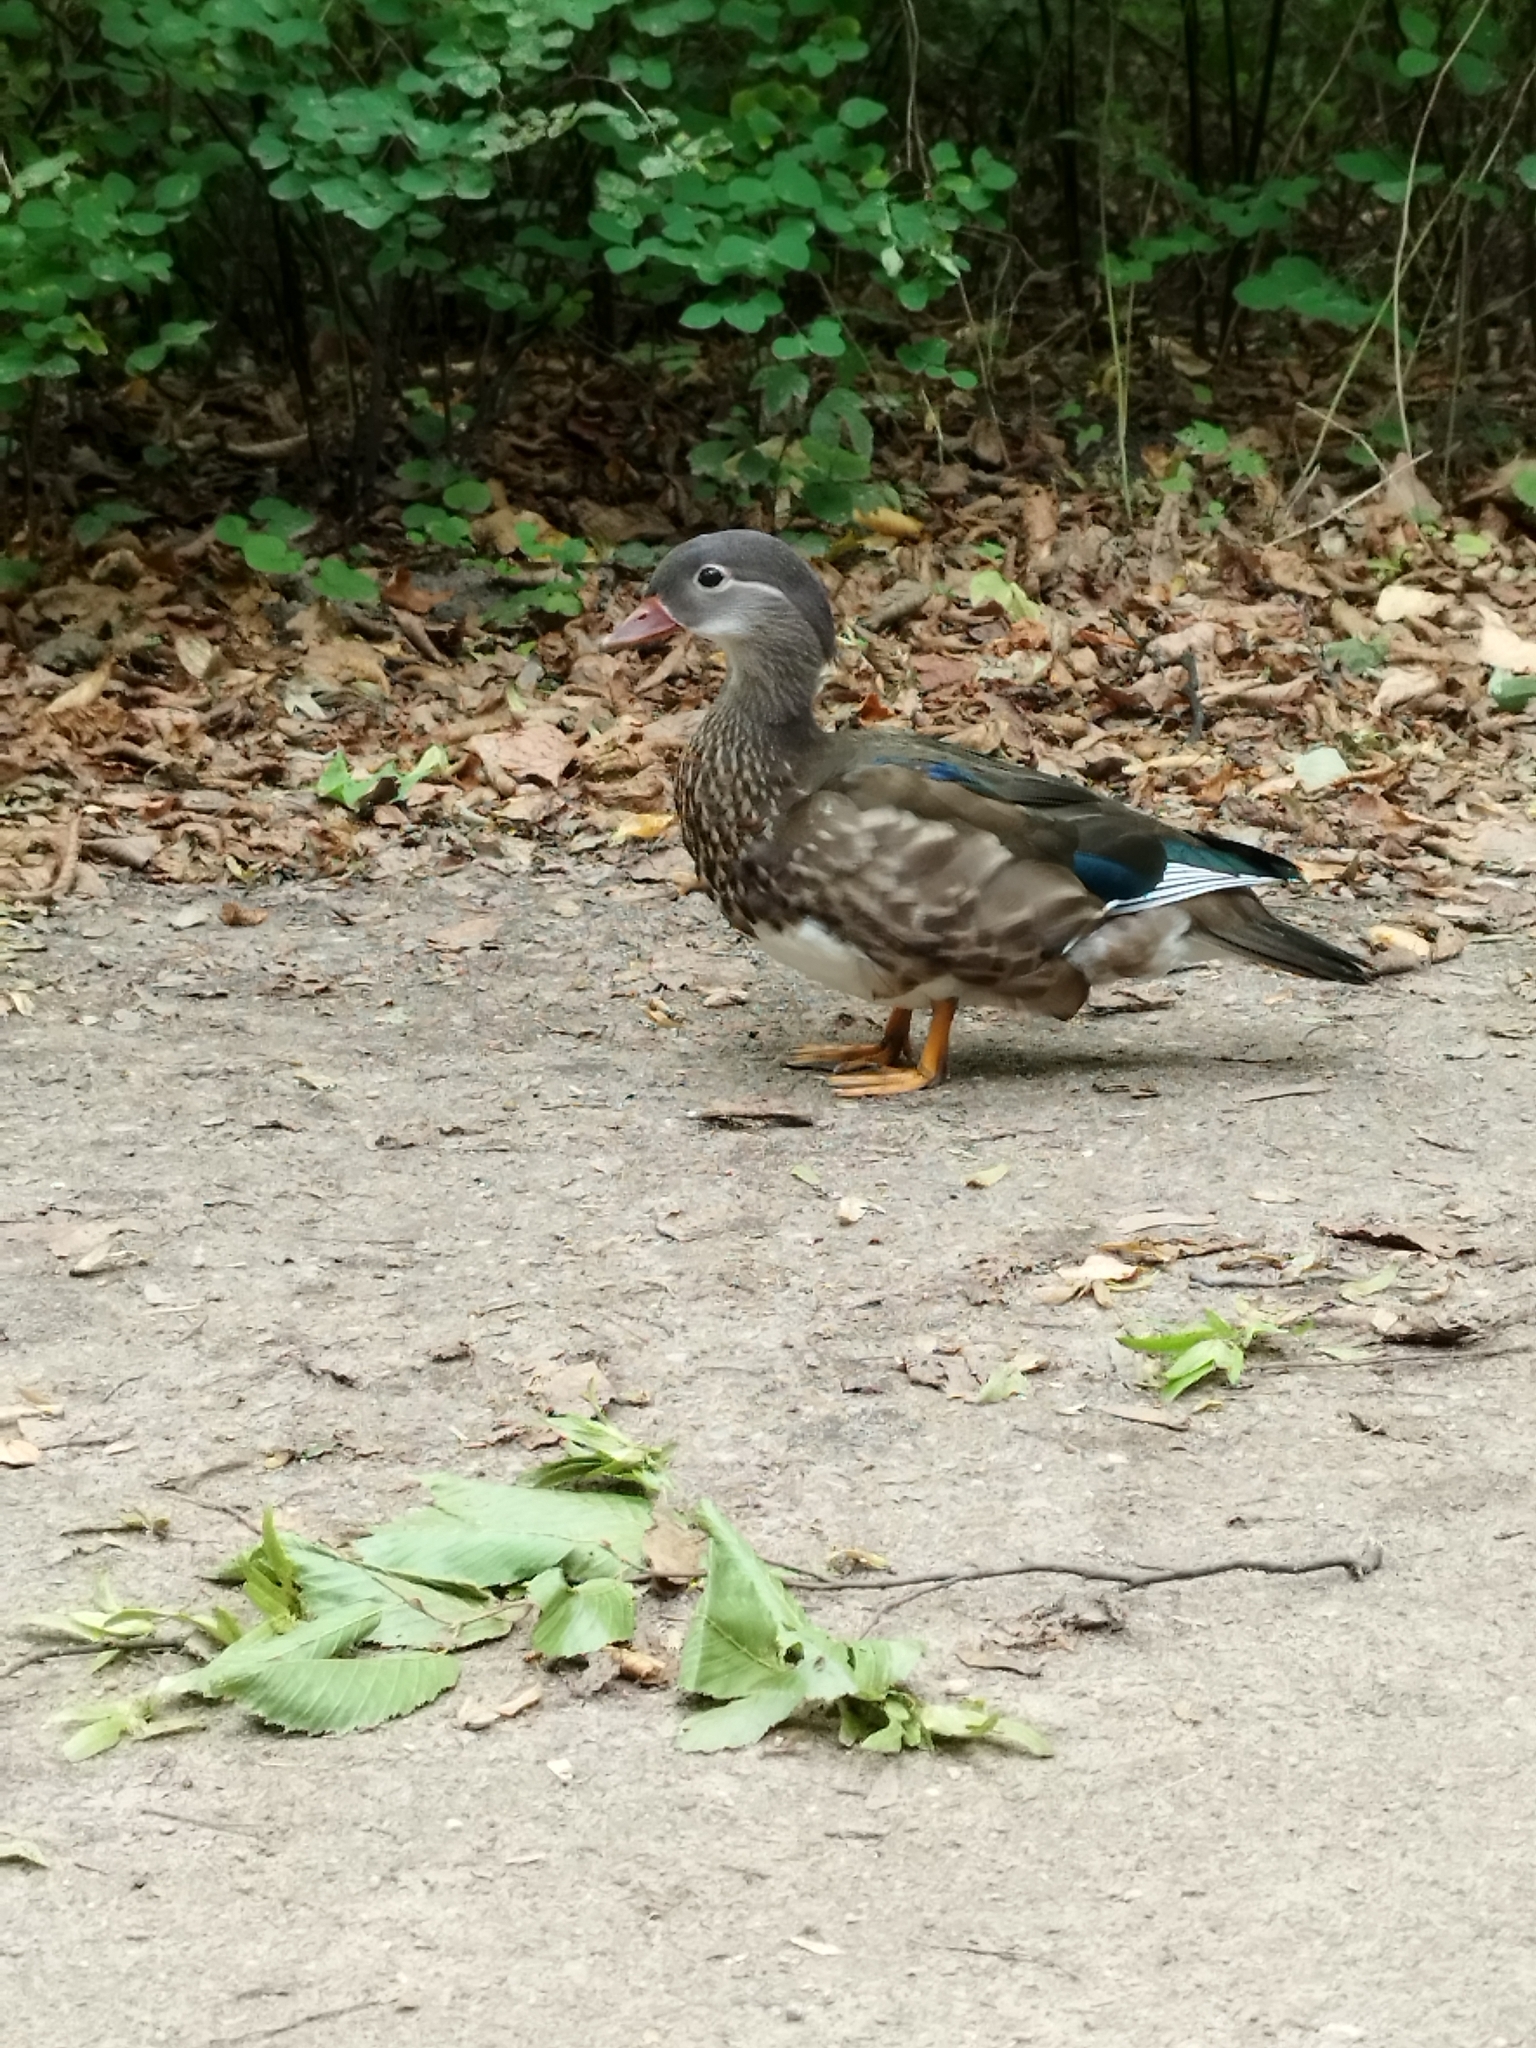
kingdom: Animalia
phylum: Chordata
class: Aves
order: Anseriformes
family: Anatidae
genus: Aix
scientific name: Aix galericulata
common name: Mandarin duck
